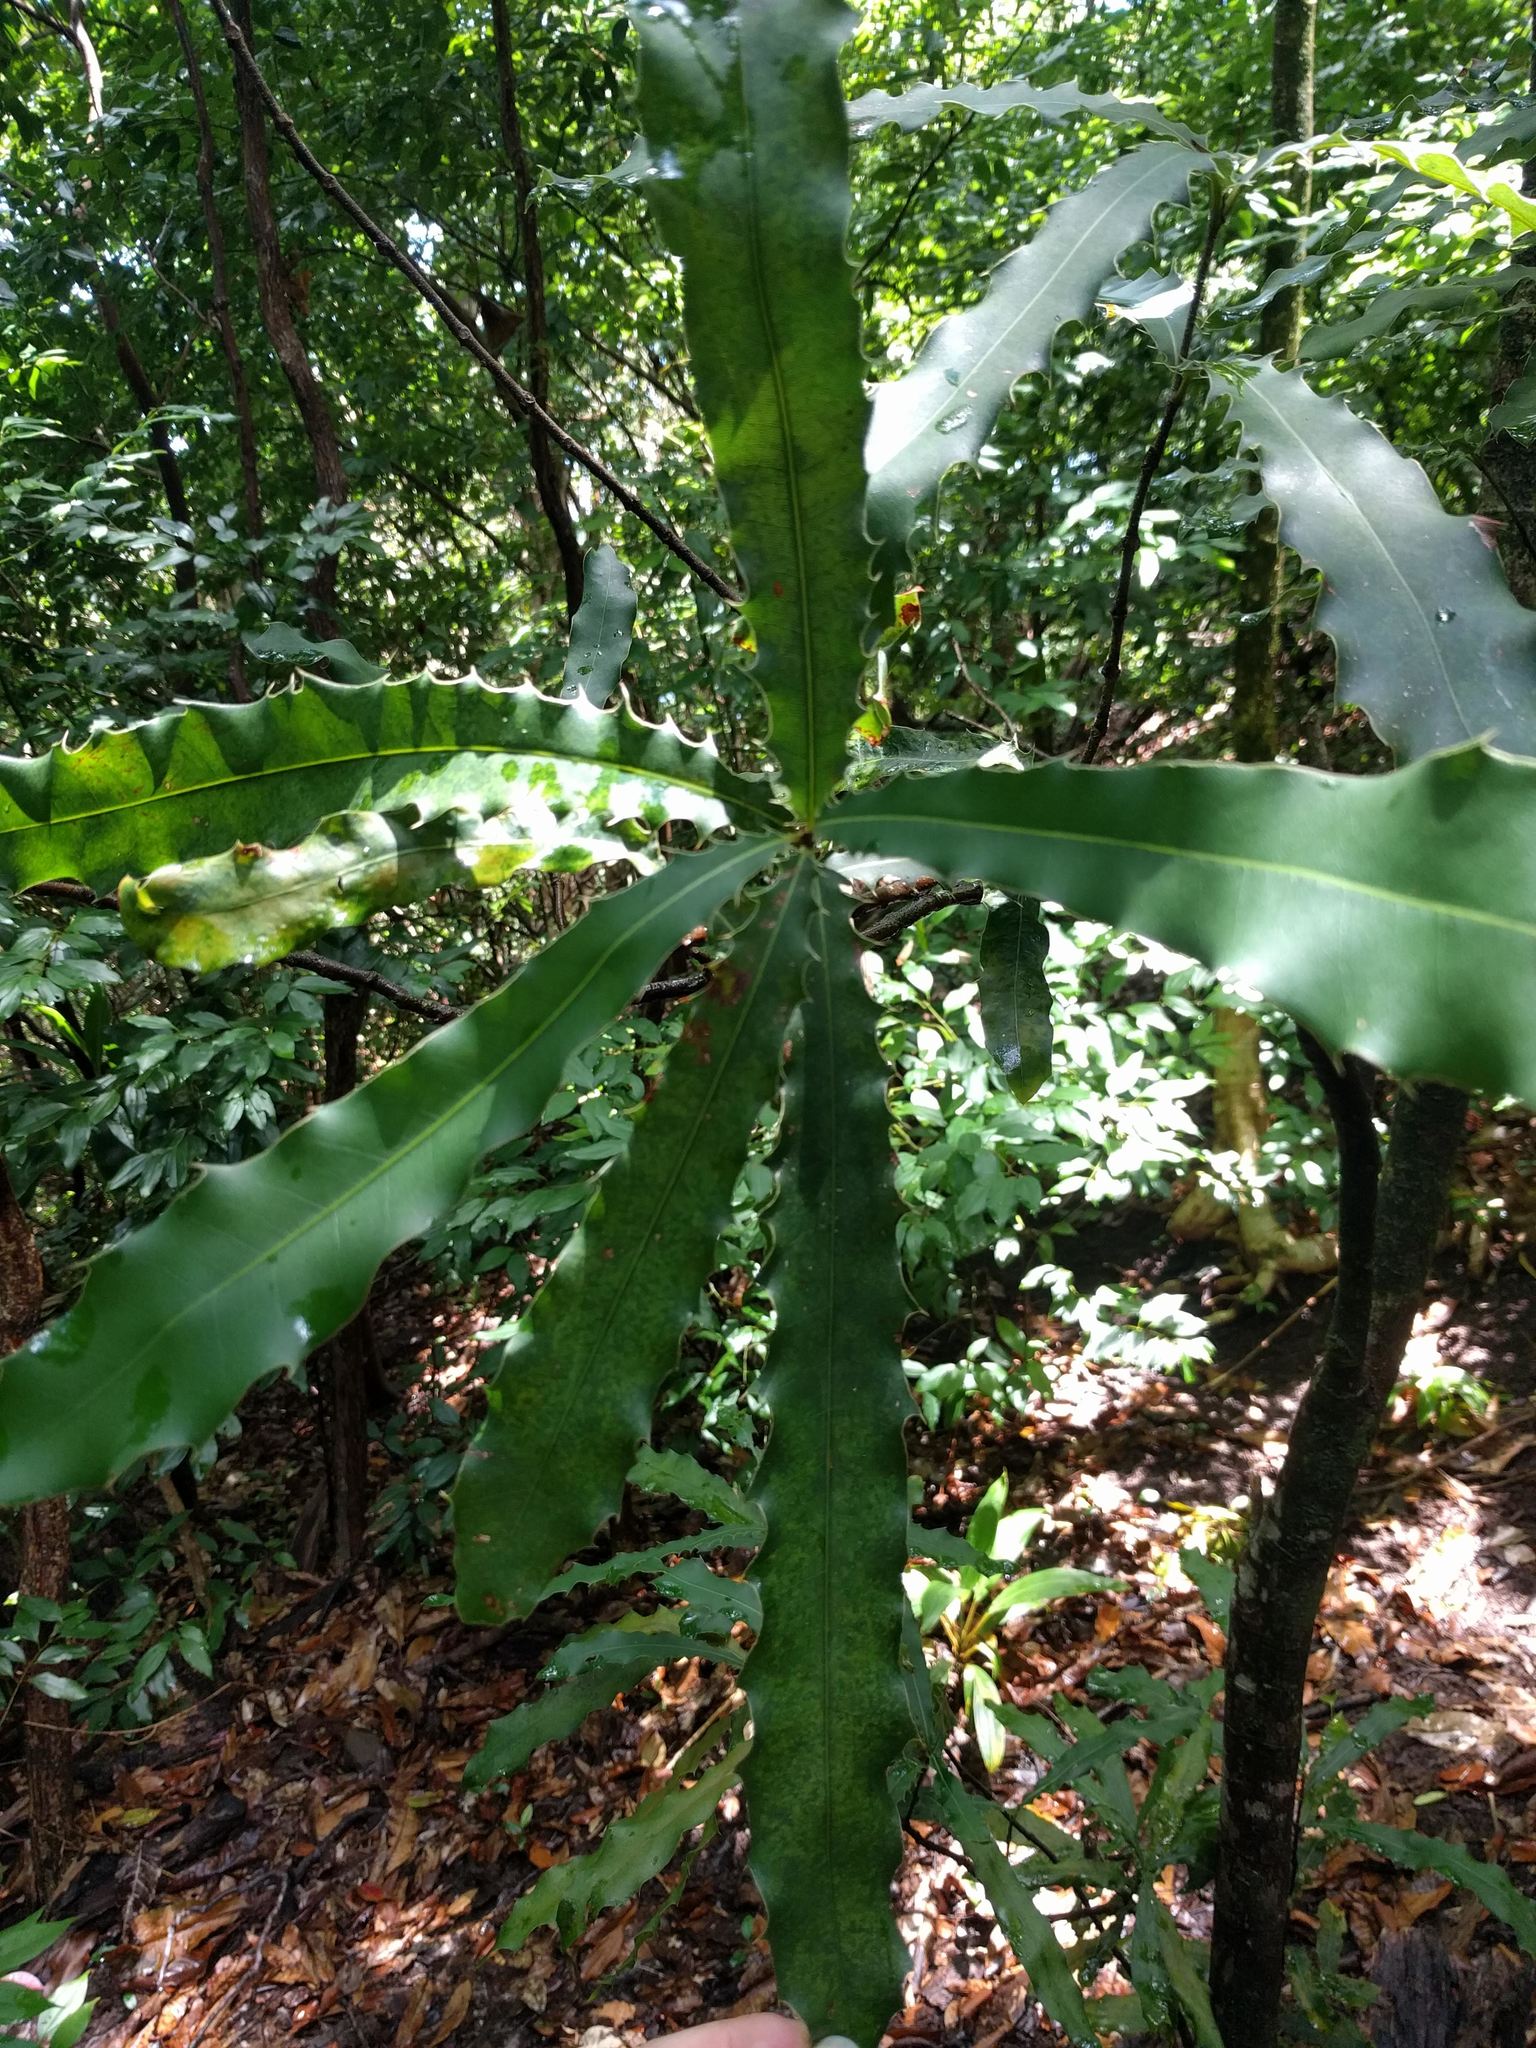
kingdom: Plantae
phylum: Tracheophyta
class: Magnoliopsida
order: Proteales
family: Proteaceae
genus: Macadamia
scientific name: Macadamia integrifolia
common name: Macadamia
